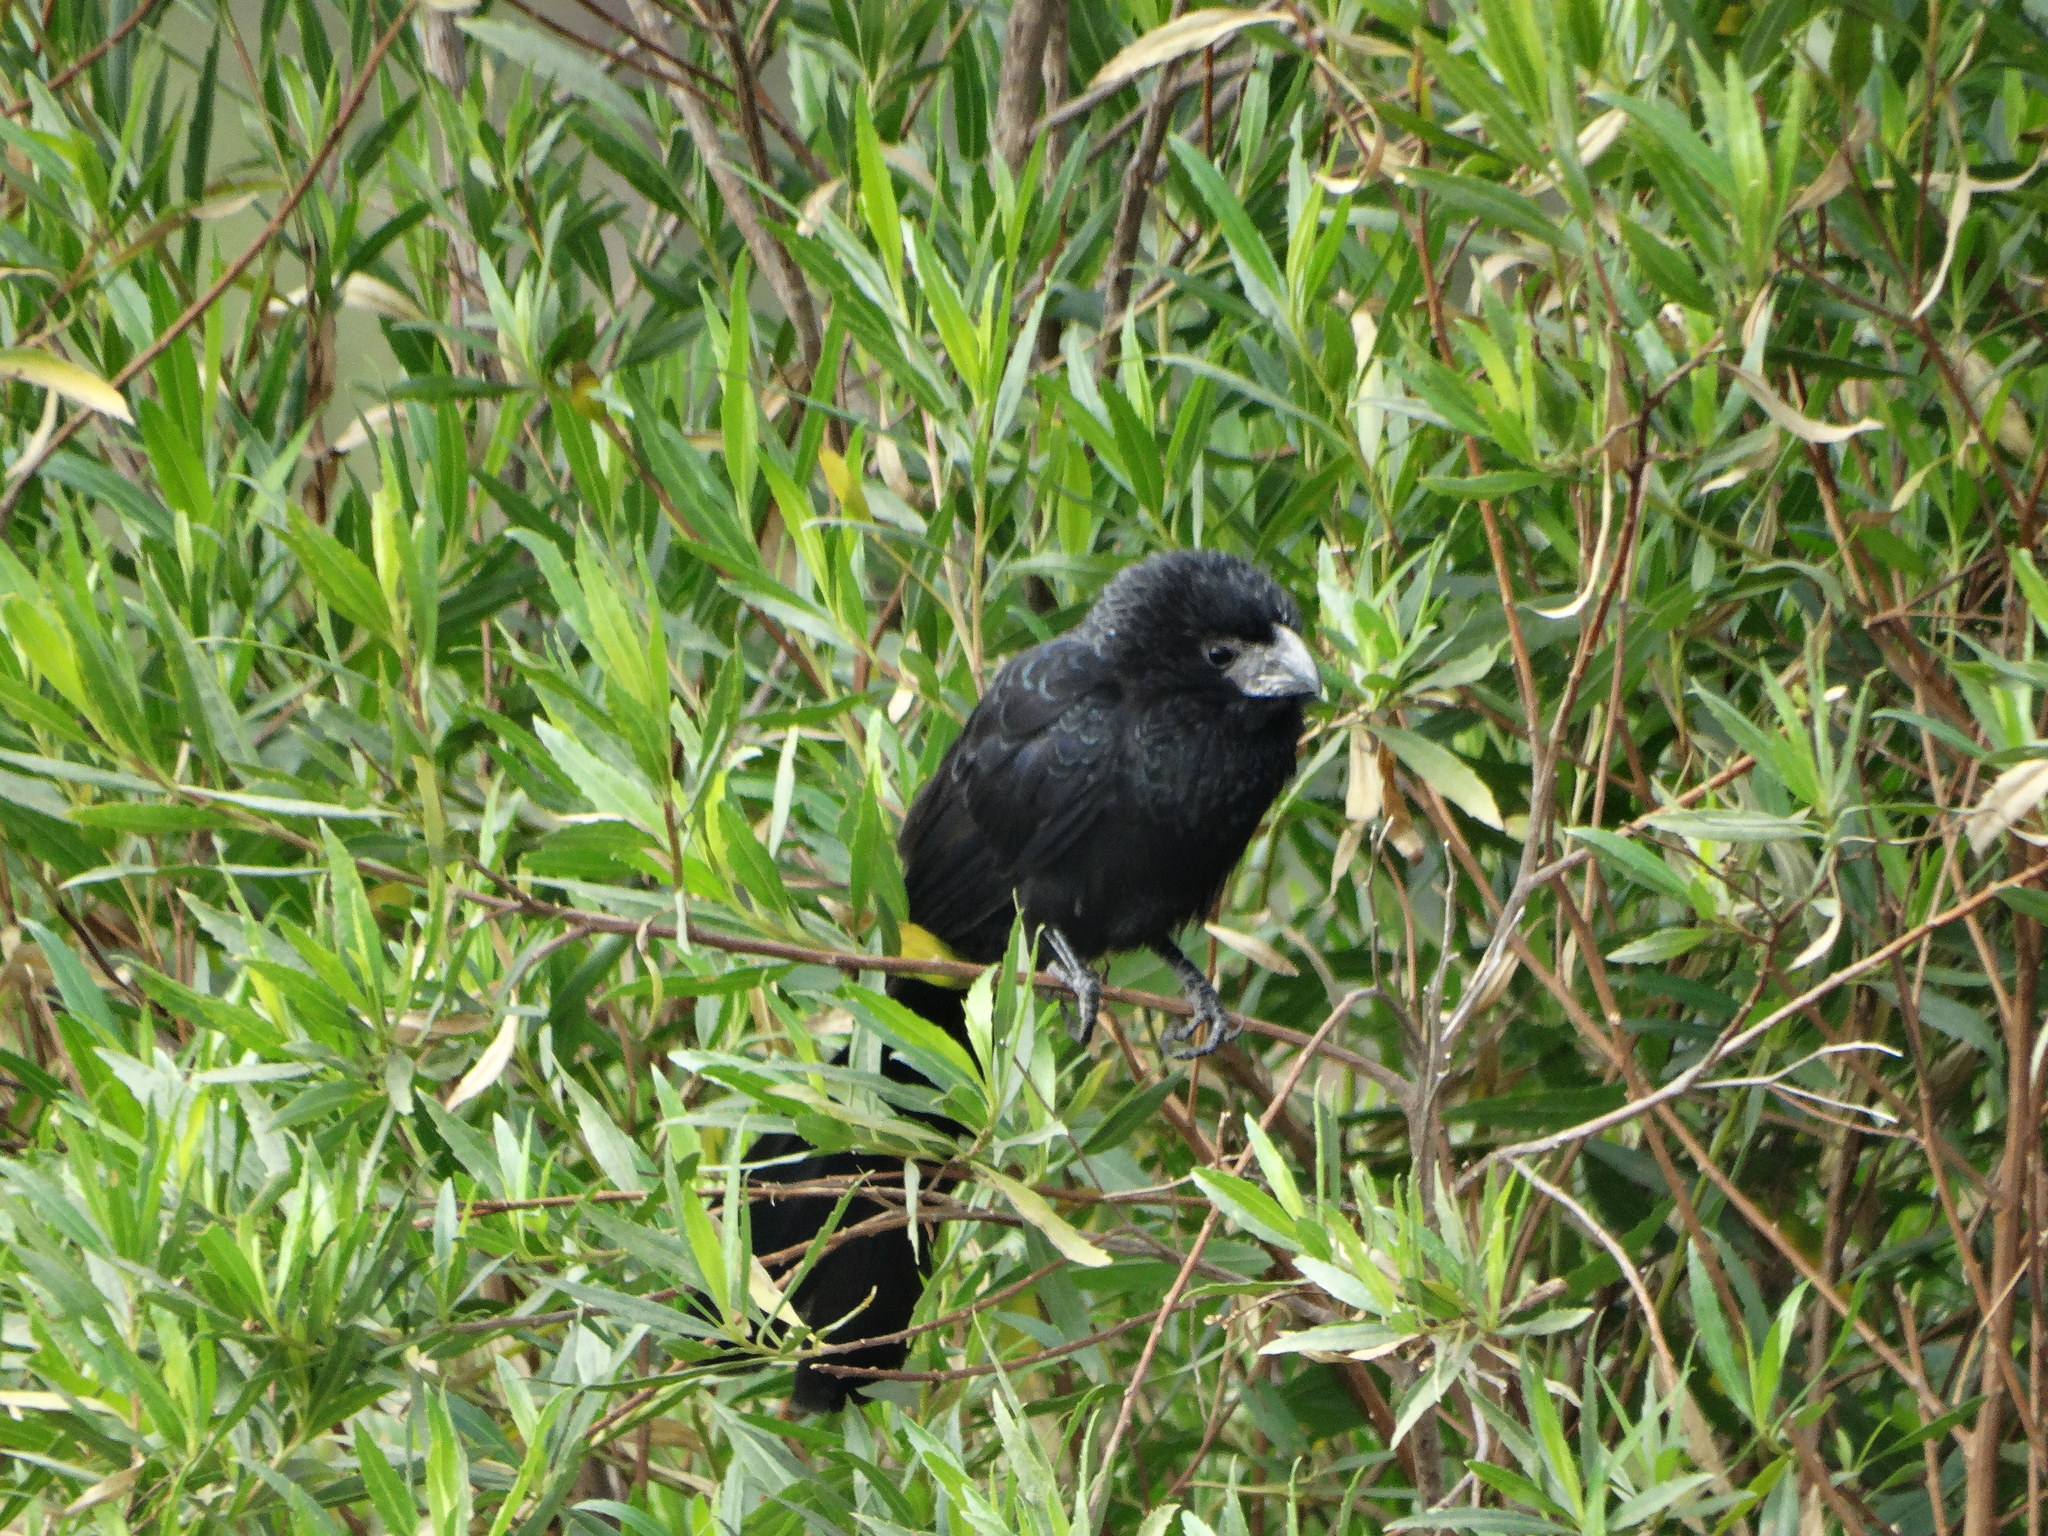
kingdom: Animalia
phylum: Chordata
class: Aves
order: Cuculiformes
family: Cuculidae
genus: Crotophaga
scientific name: Crotophaga sulcirostris
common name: Groove-billed ani
